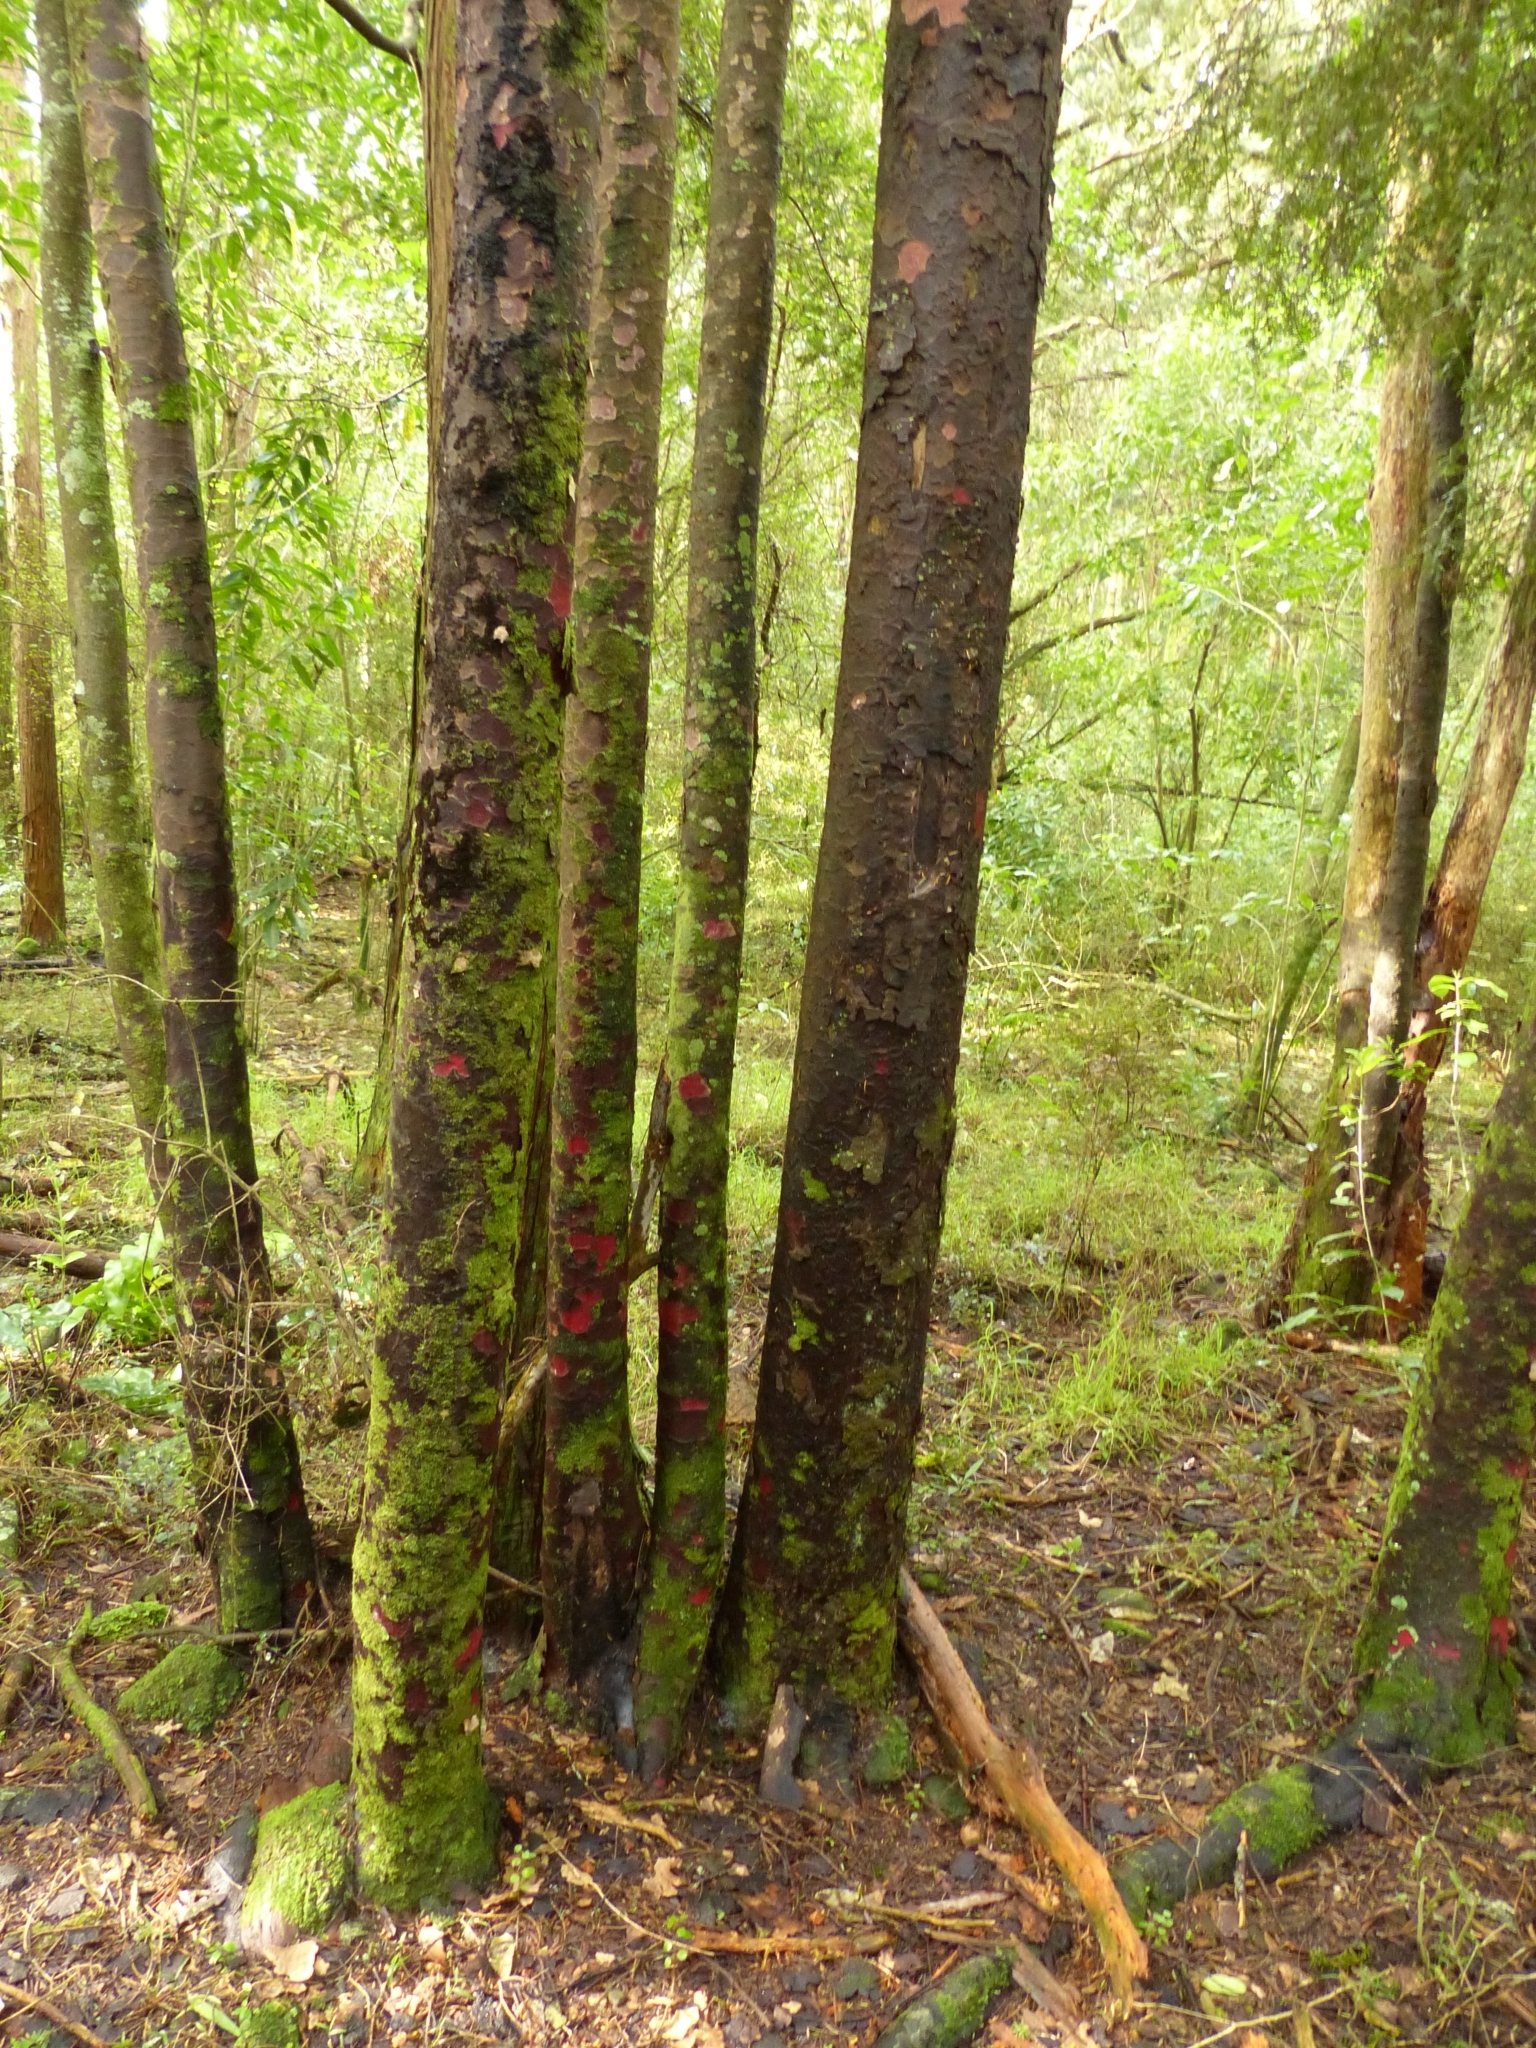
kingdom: Plantae
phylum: Tracheophyta
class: Pinopsida
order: Pinales
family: Podocarpaceae
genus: Prumnopitys
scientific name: Prumnopitys taxifolia
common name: Matai
